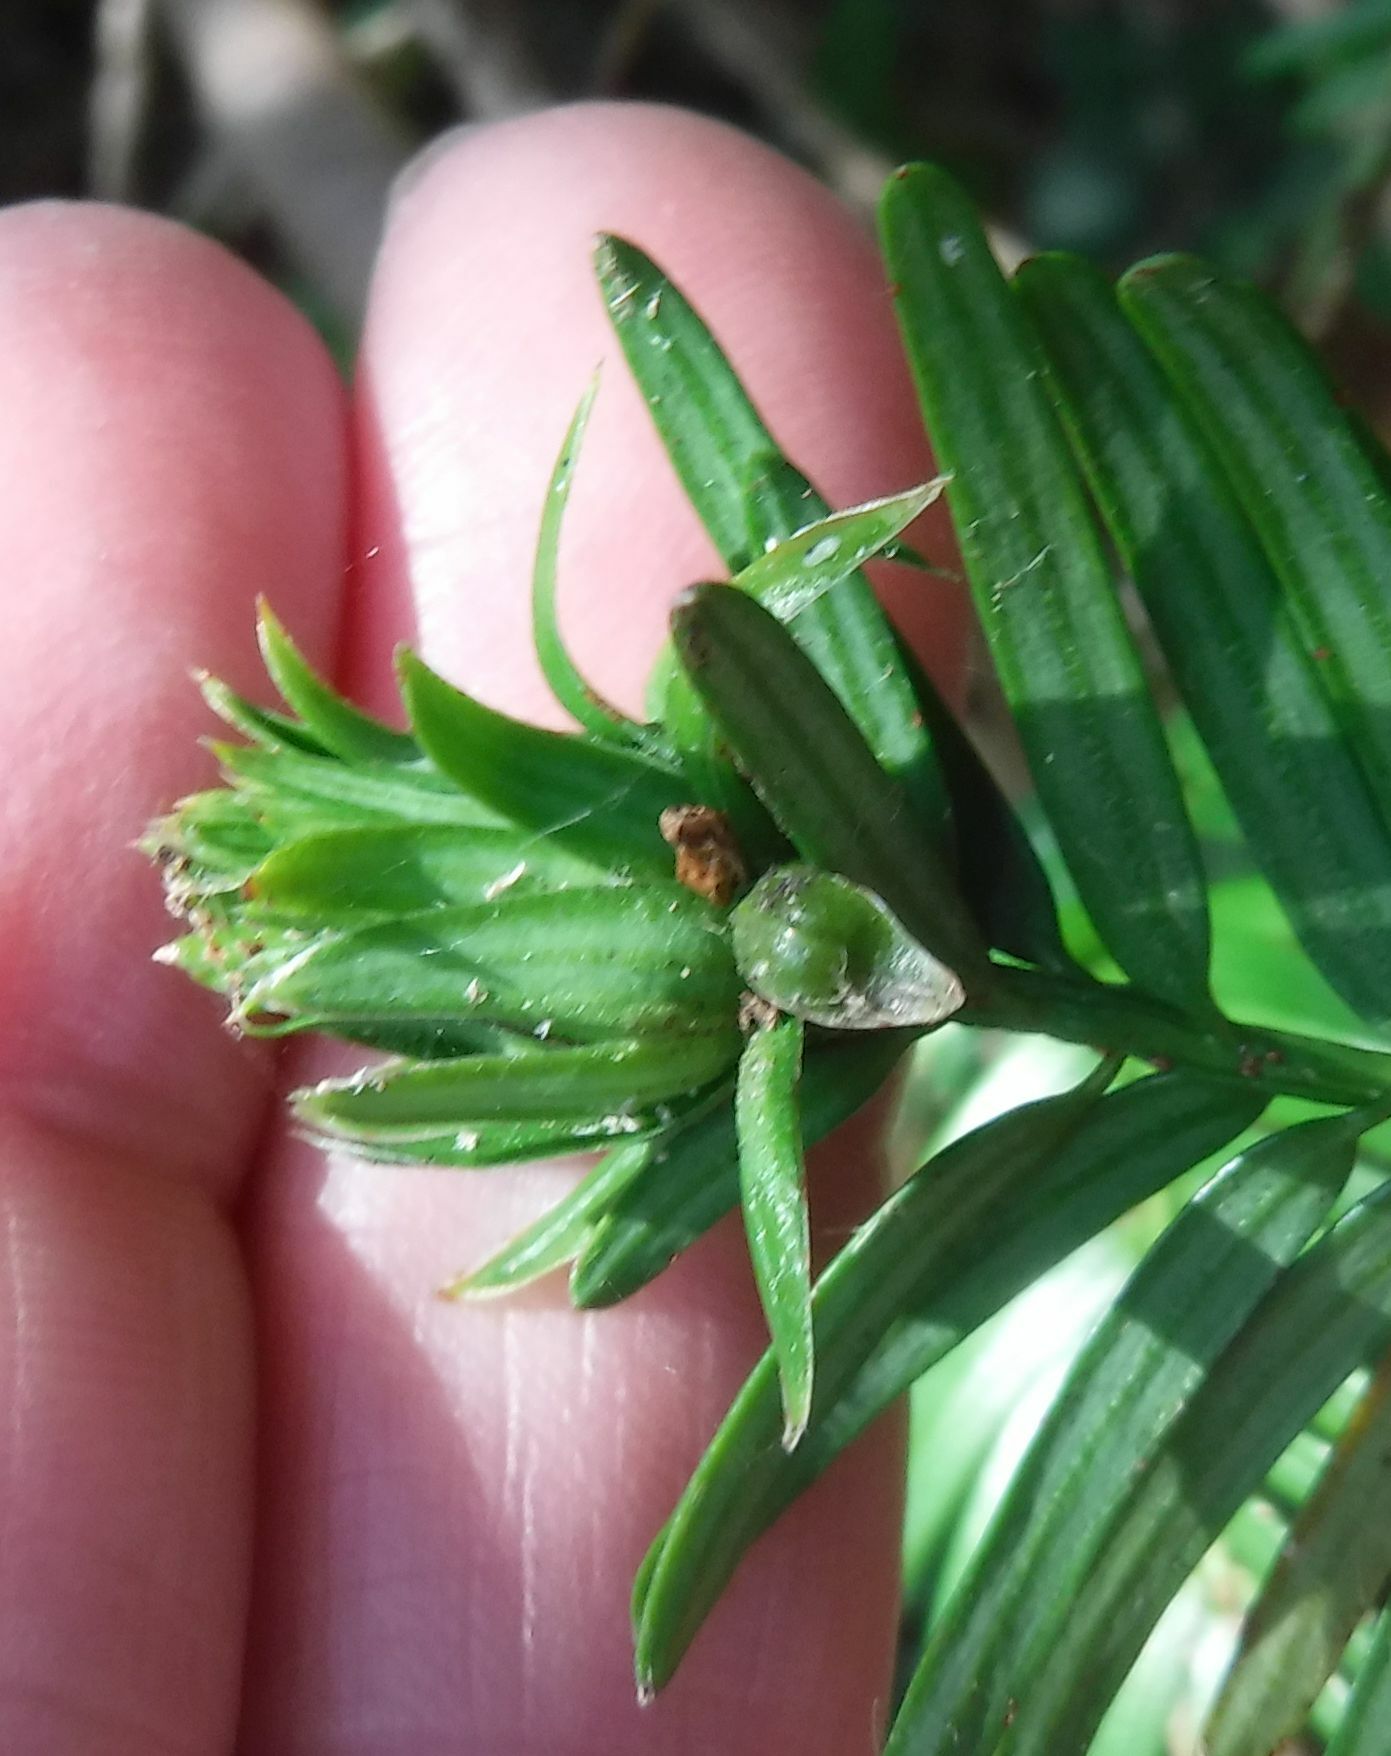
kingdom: Animalia
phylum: Arthropoda
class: Insecta
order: Diptera
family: Cecidomyiidae
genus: Taxomyia
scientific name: Taxomyia taxi
